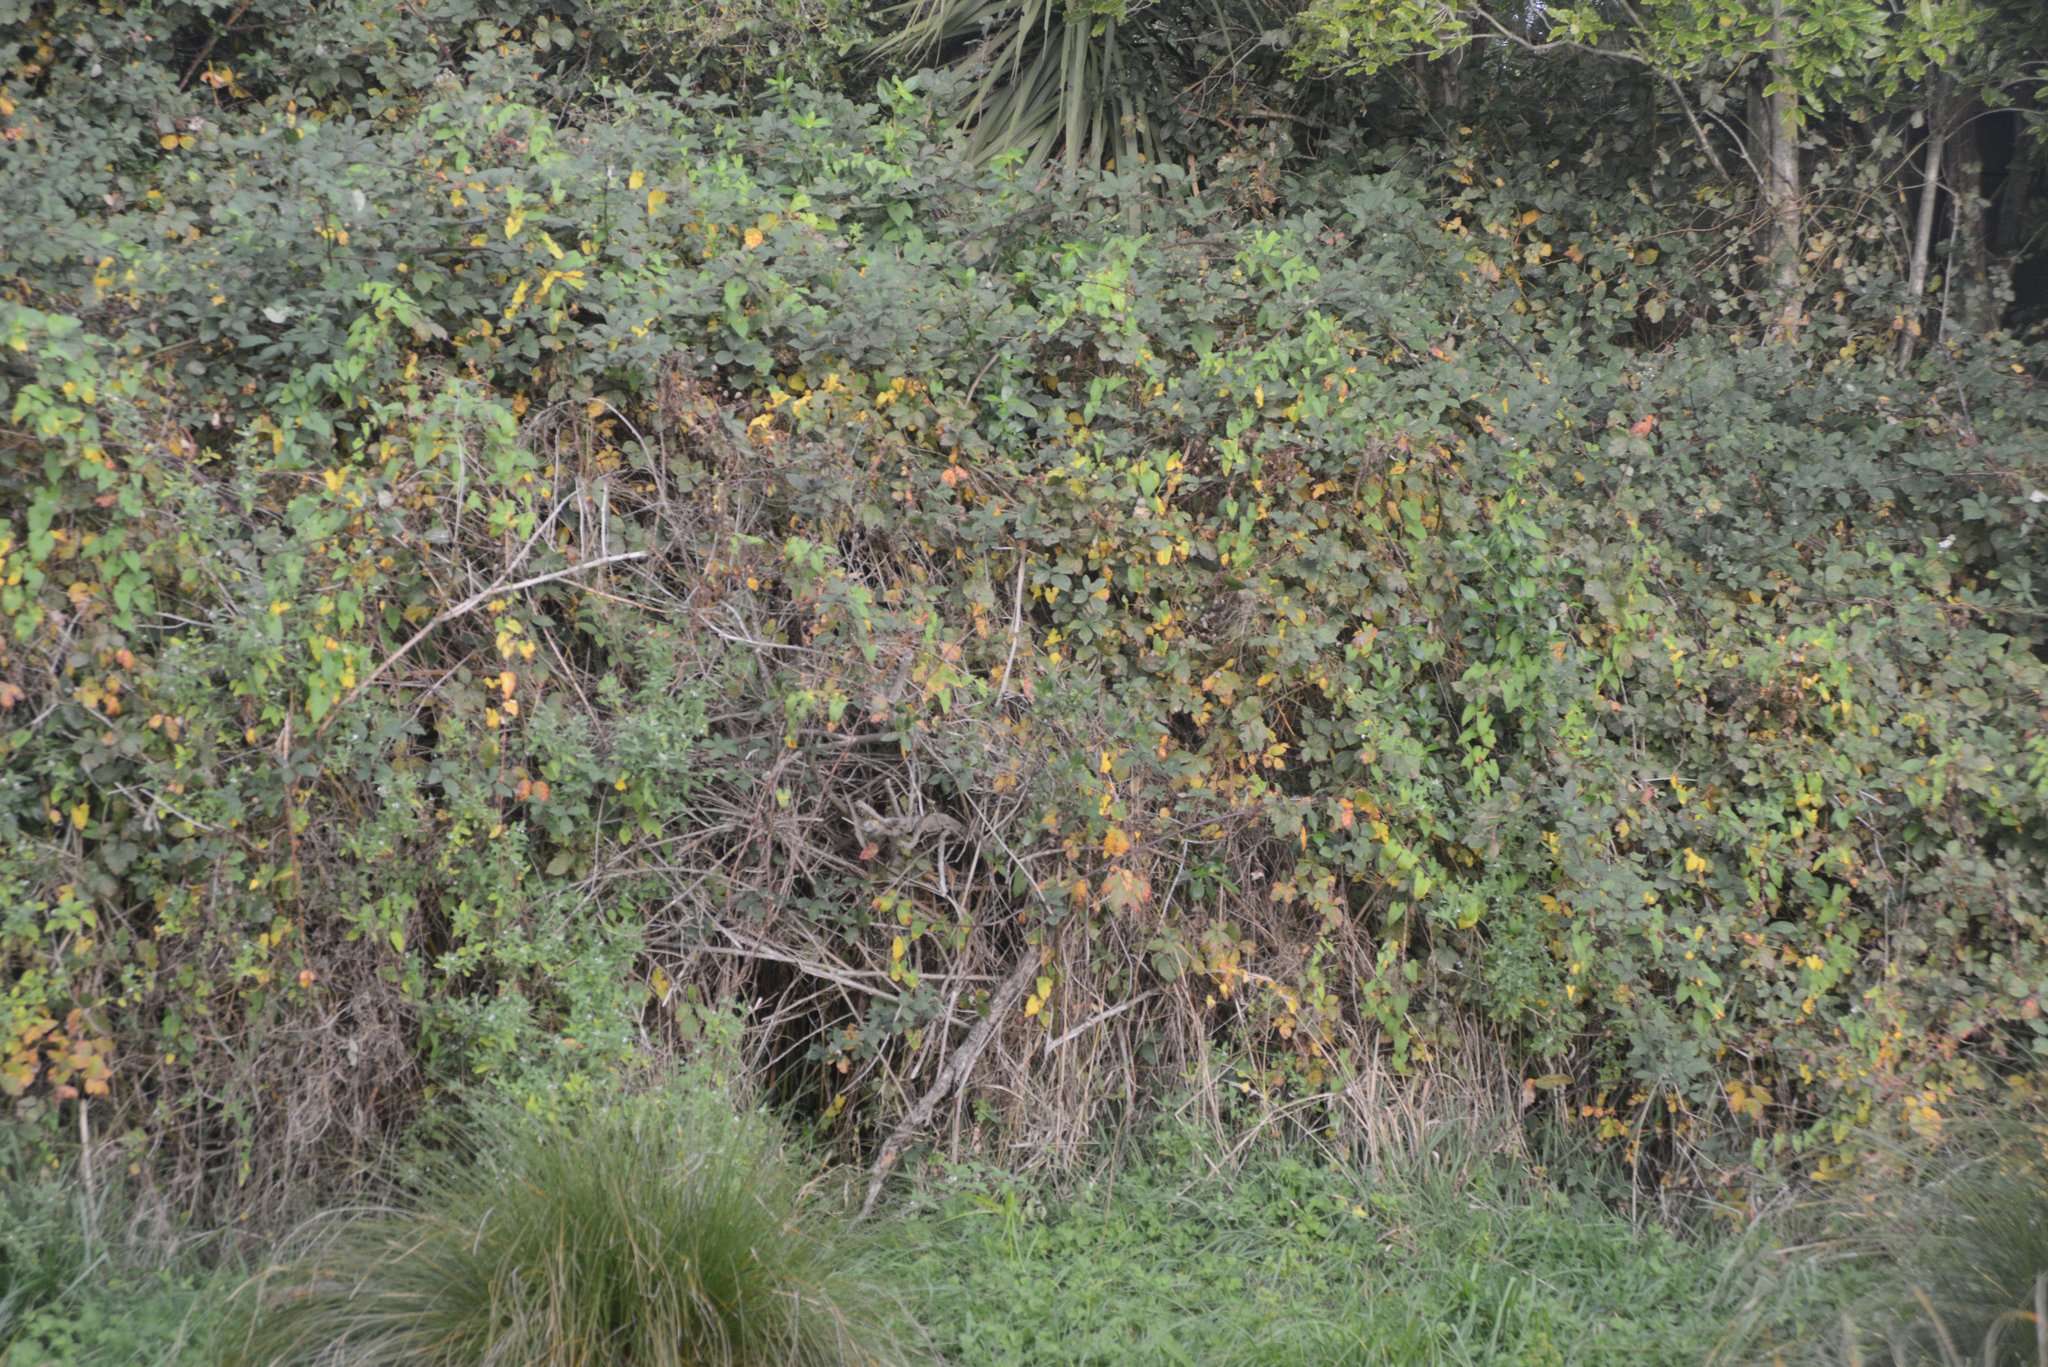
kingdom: Plantae
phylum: Tracheophyta
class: Magnoliopsida
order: Rosales
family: Rosaceae
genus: Rubus
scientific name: Rubus
